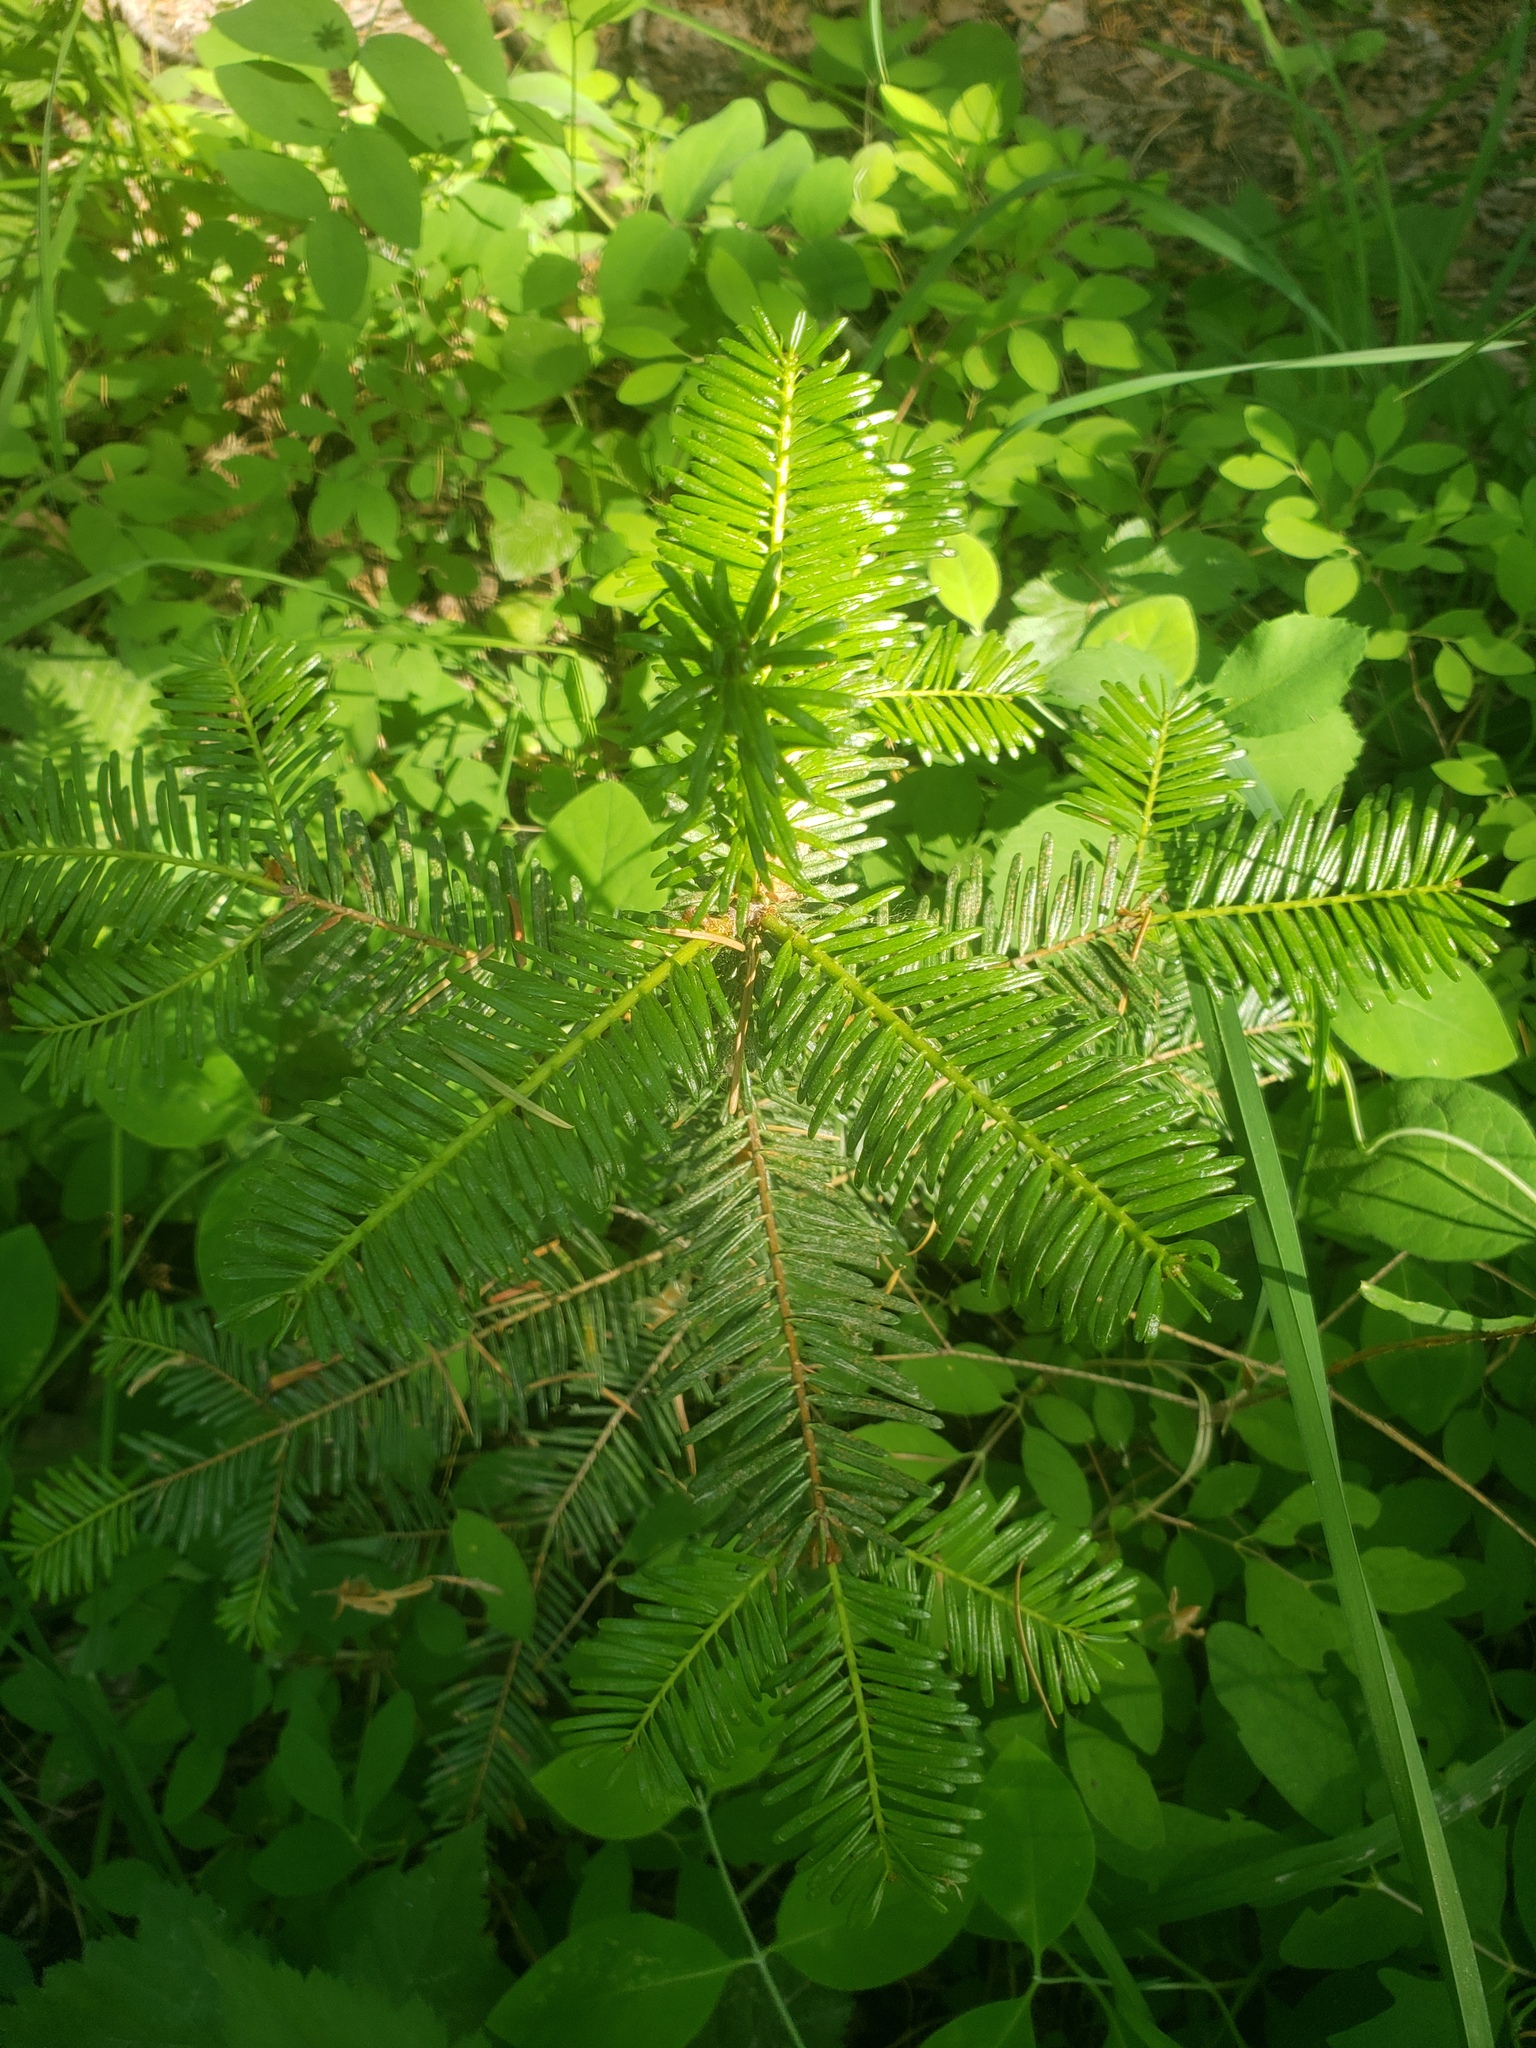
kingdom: Plantae
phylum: Tracheophyta
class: Pinopsida
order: Pinales
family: Pinaceae
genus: Abies
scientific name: Abies grandis
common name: Giant fir
